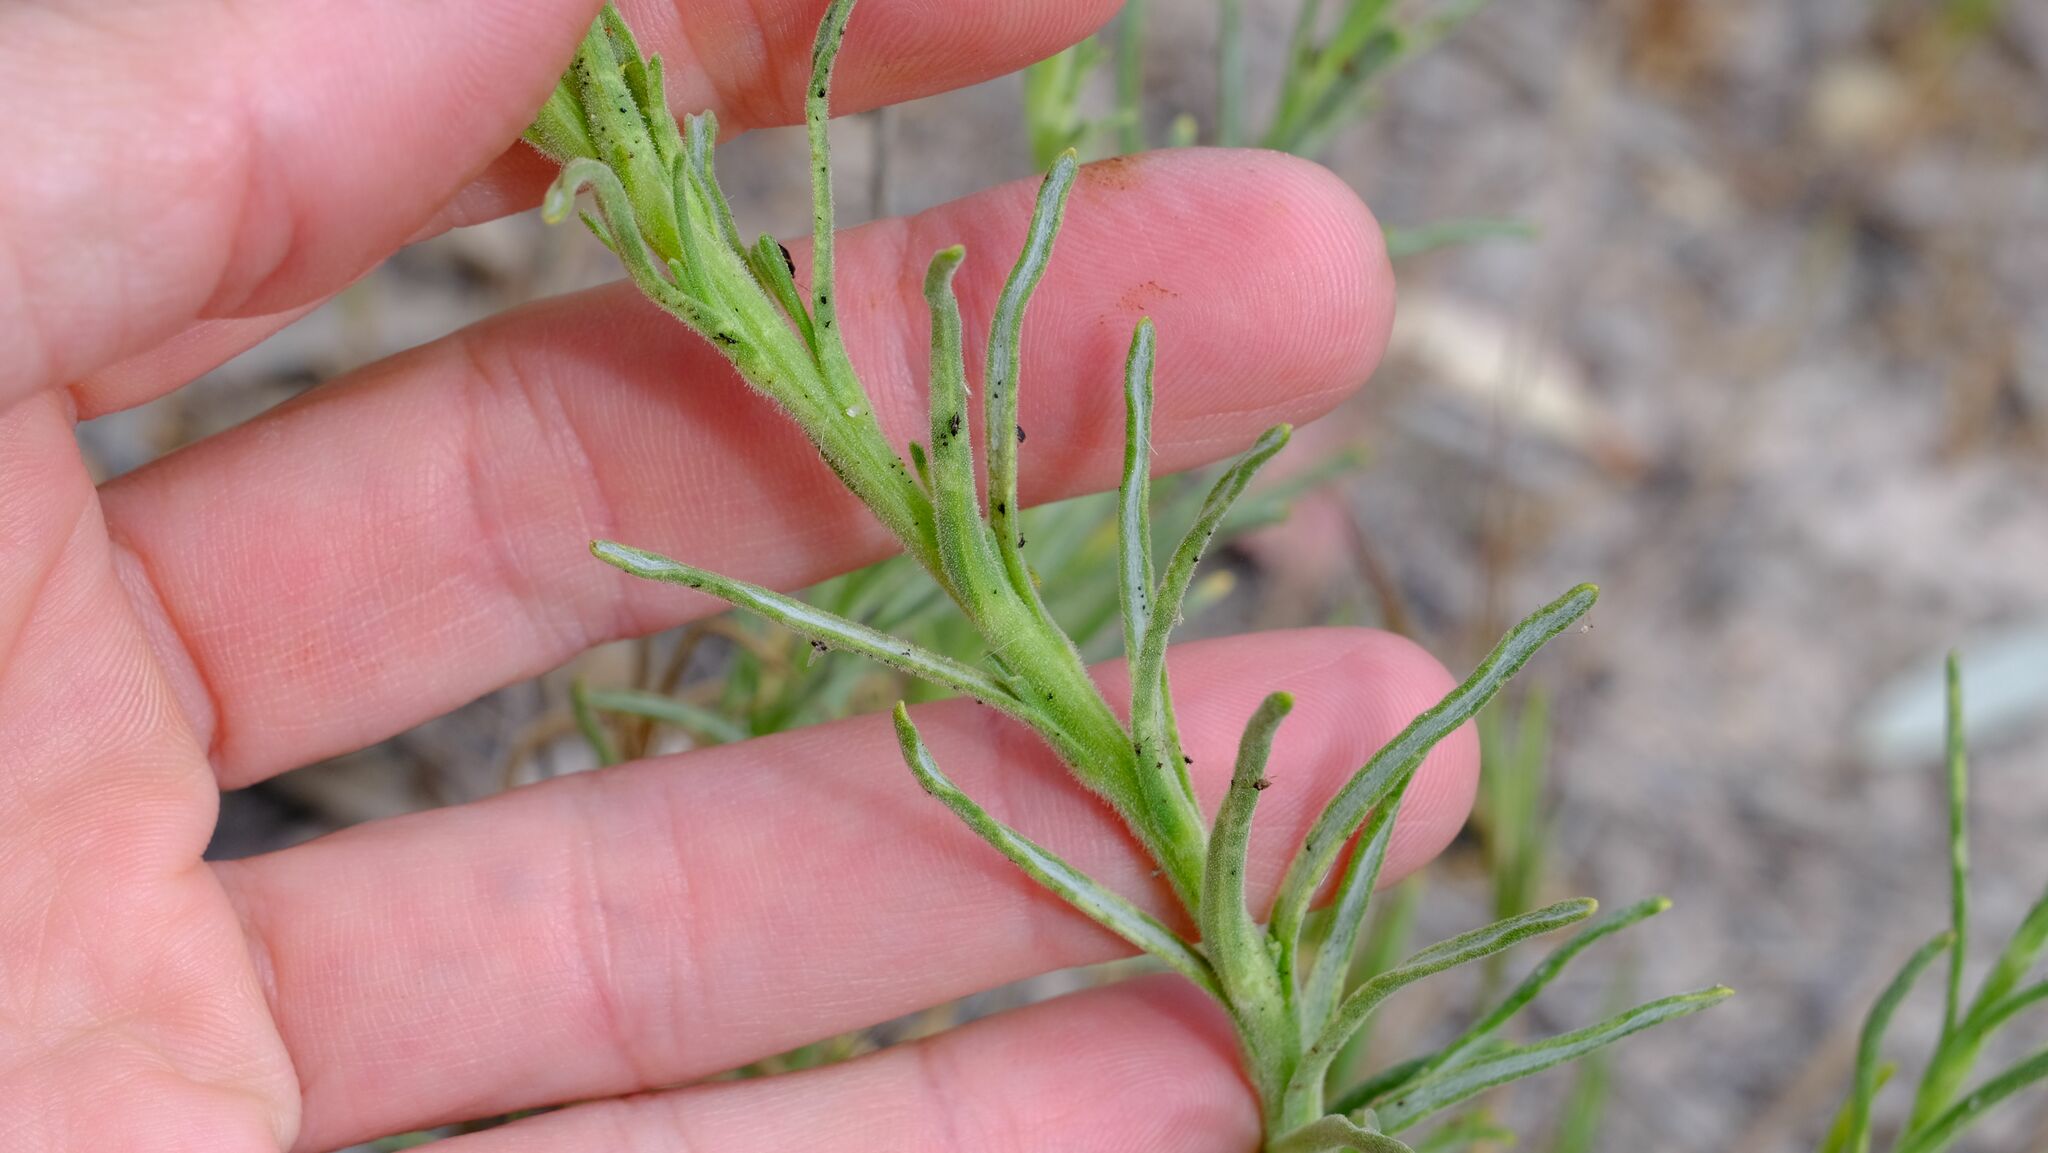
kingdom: Plantae
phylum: Tracheophyta
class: Magnoliopsida
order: Asterales
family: Asteraceae
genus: Polycalymma
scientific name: Polycalymma stuartii
